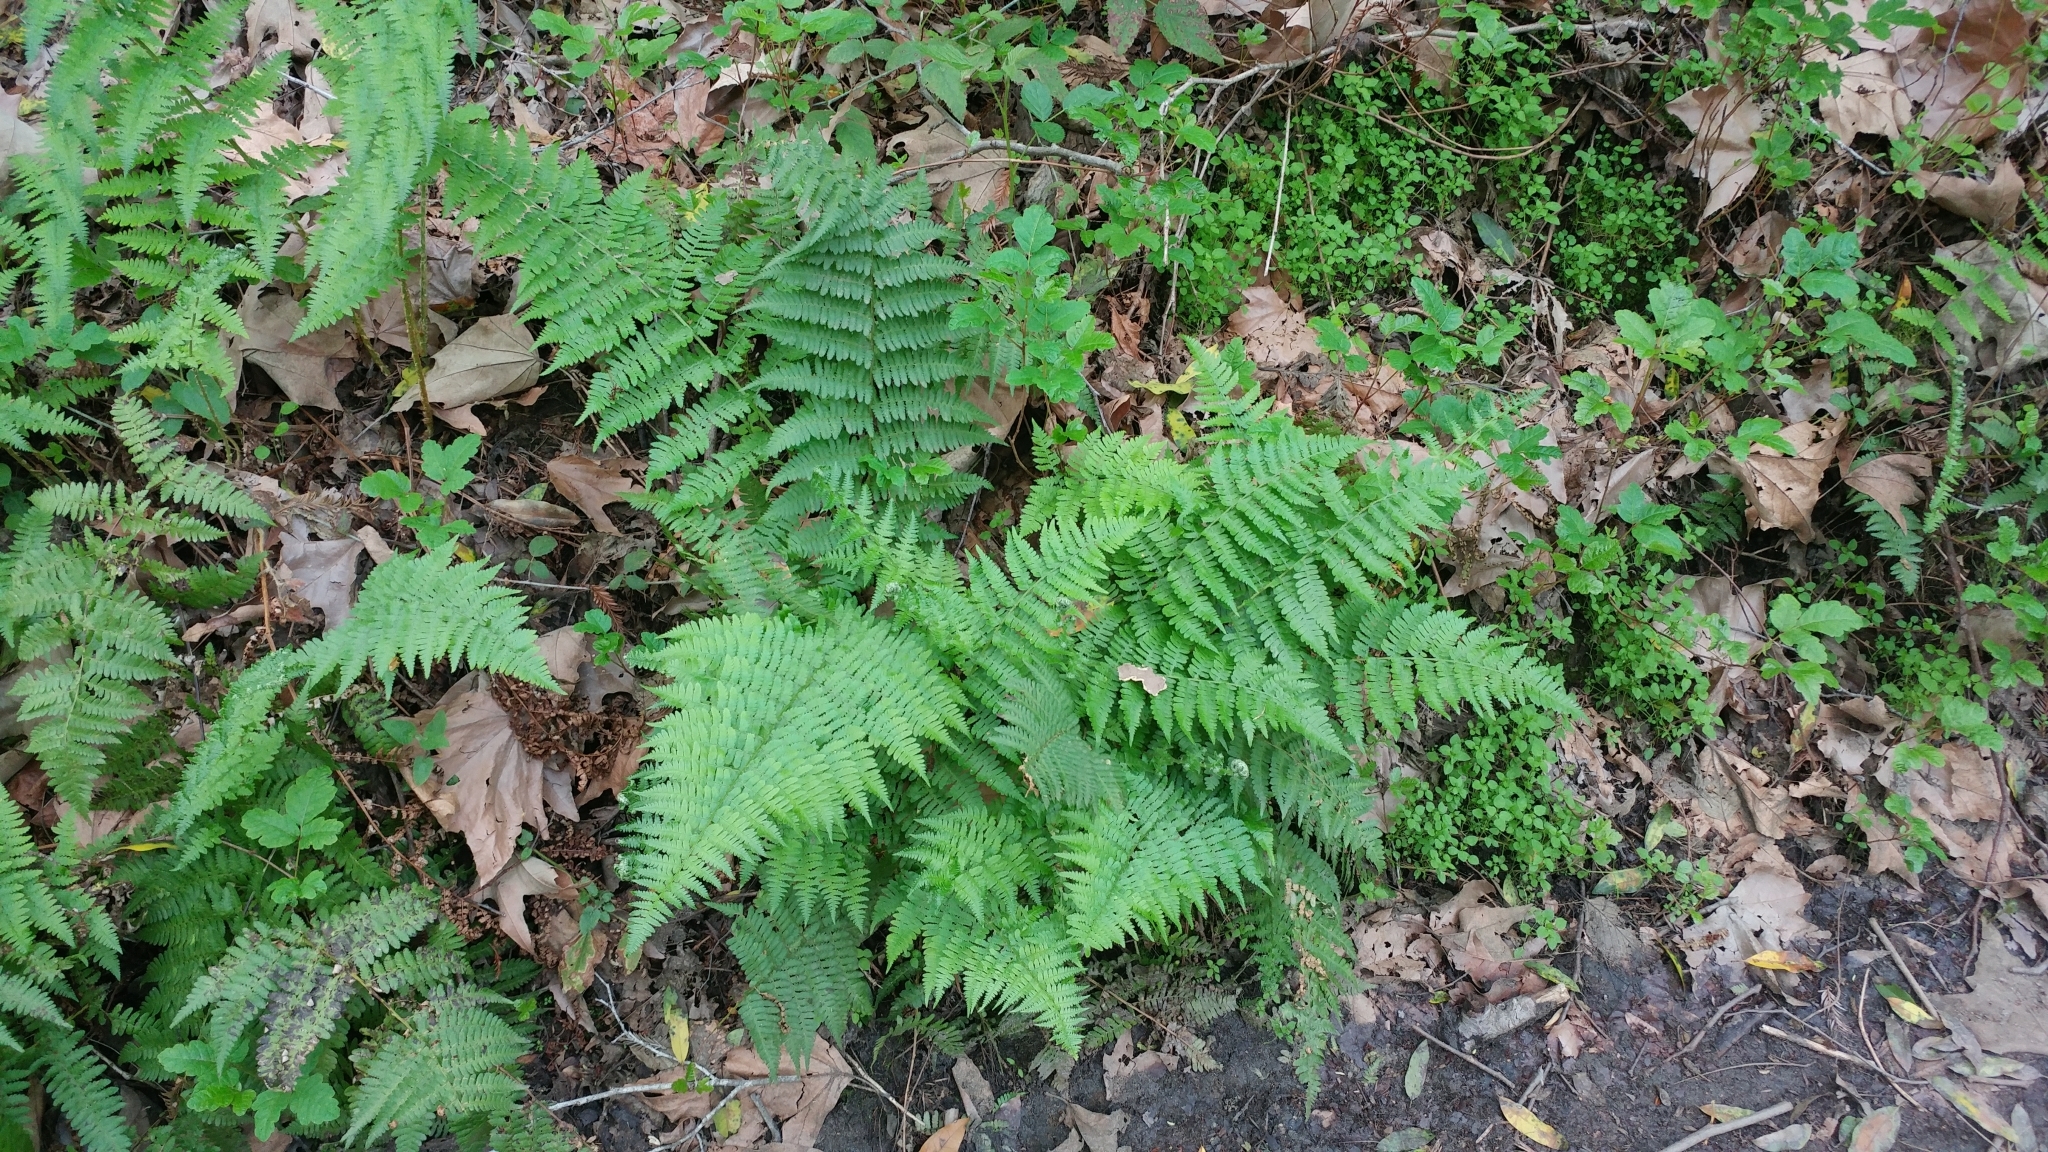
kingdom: Plantae
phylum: Tracheophyta
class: Polypodiopsida
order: Polypodiales
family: Athyriaceae
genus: Athyrium
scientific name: Athyrium filix-femina
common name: Lady fern
